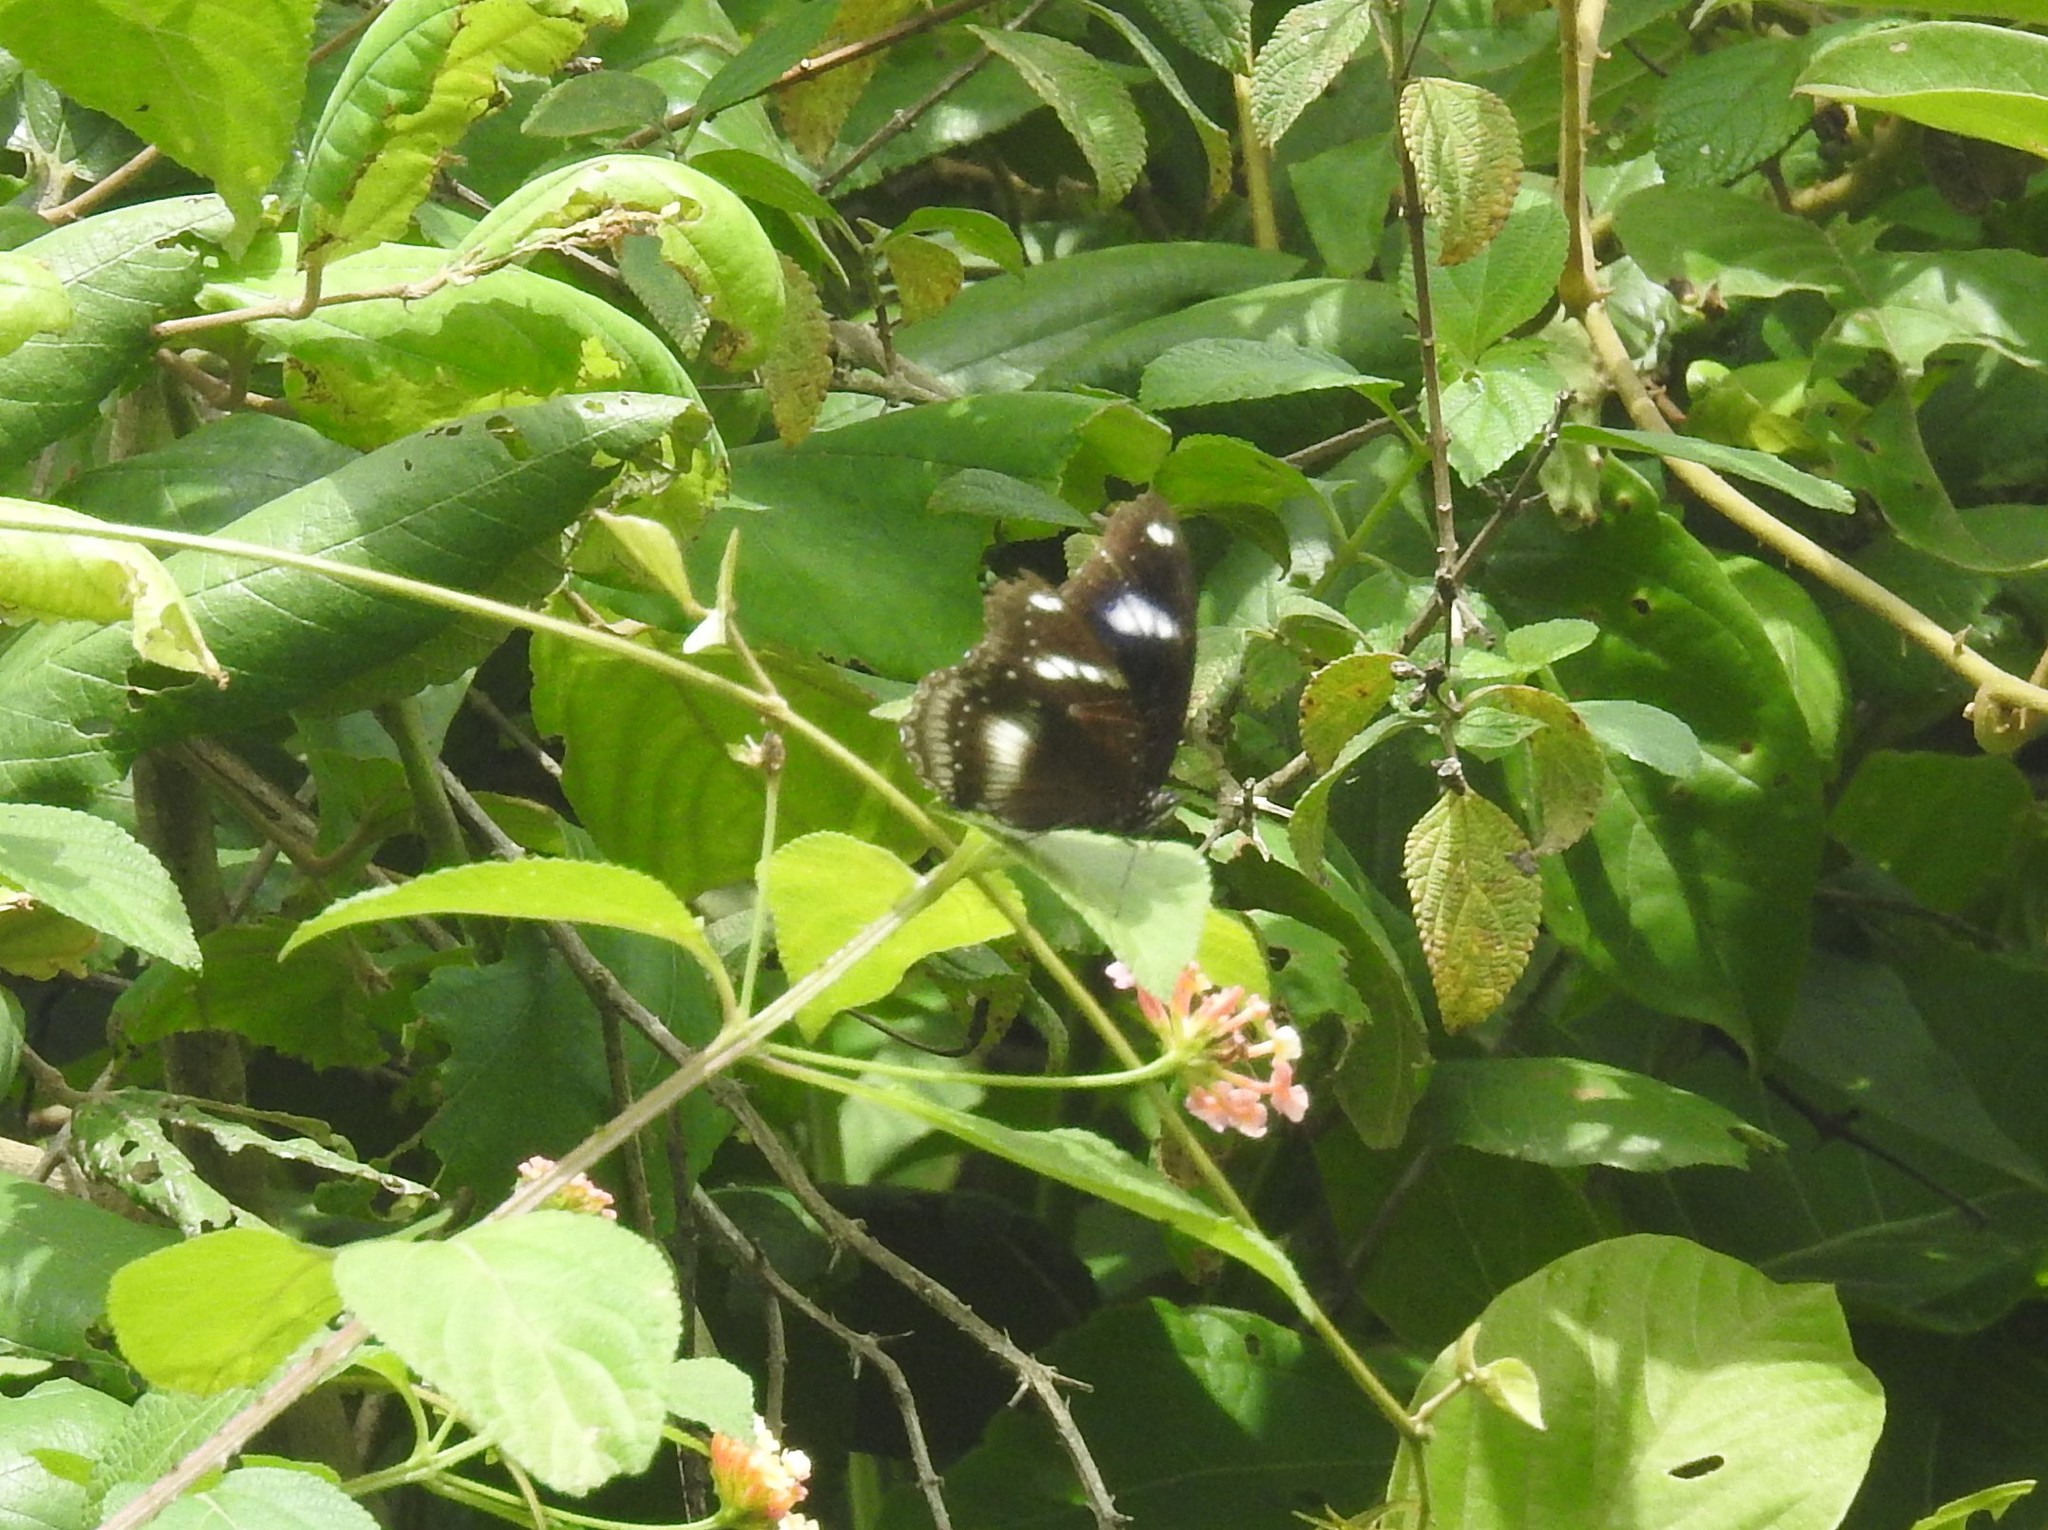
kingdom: Animalia
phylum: Arthropoda
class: Insecta
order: Lepidoptera
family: Nymphalidae
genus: Hypolimnas
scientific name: Hypolimnas bolina
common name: Great eggfly
